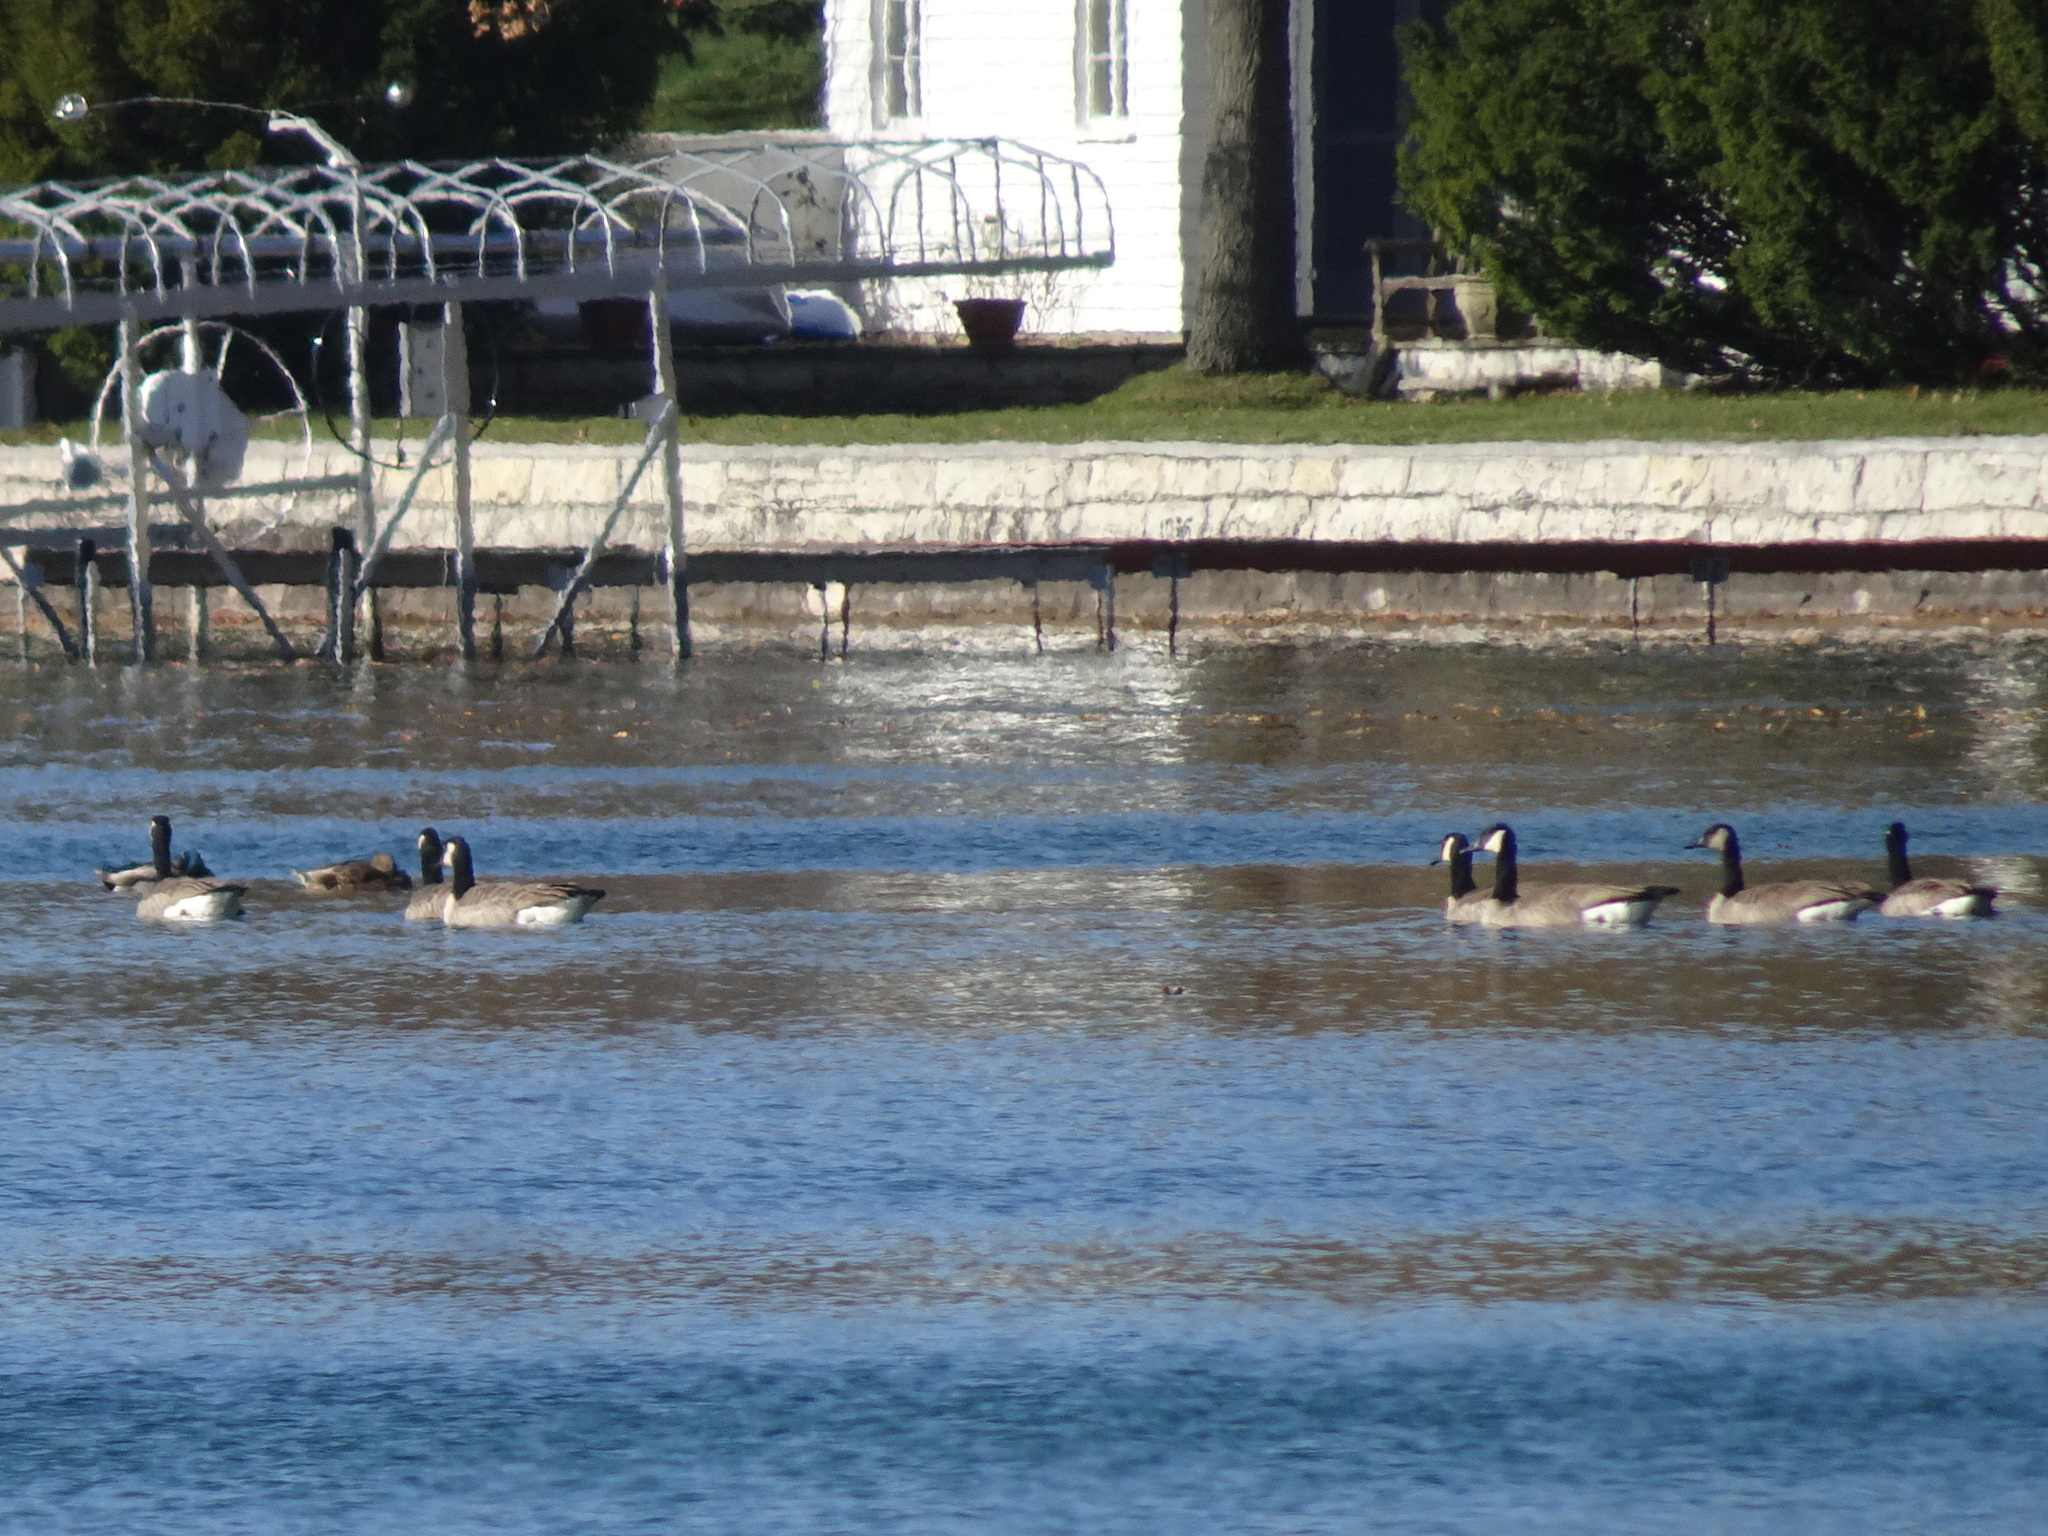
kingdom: Animalia
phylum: Chordata
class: Aves
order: Anseriformes
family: Anatidae
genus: Branta
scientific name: Branta canadensis
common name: Canada goose
